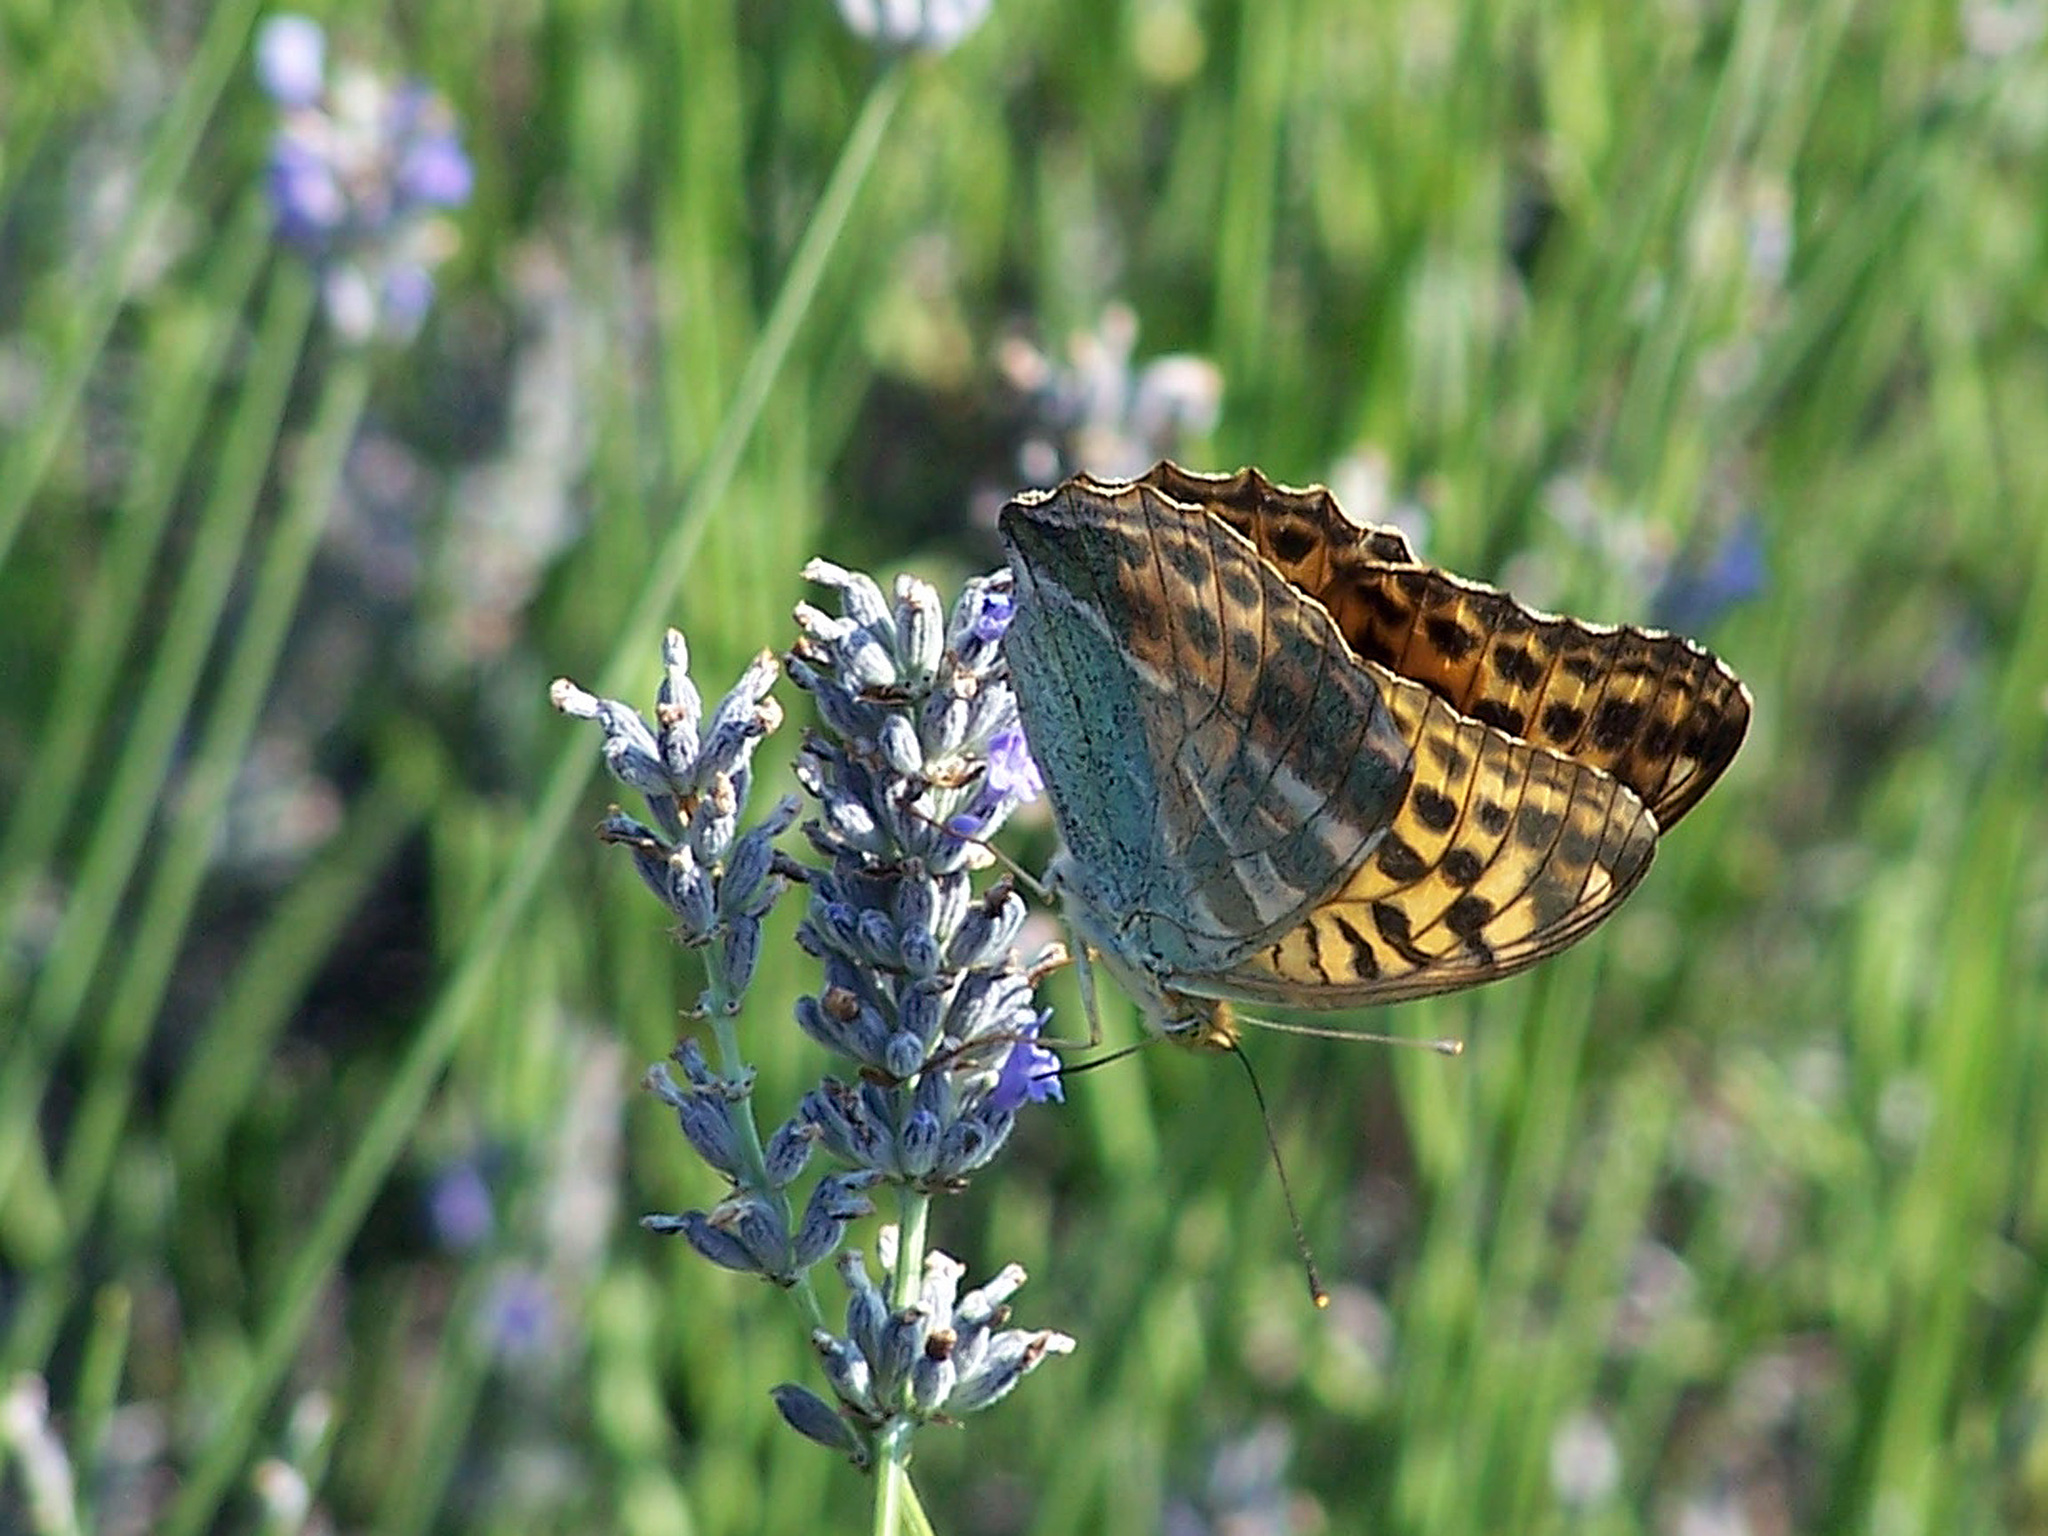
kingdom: Animalia
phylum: Arthropoda
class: Insecta
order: Lepidoptera
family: Nymphalidae
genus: Argynnis
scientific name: Argynnis paphia
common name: Silver-washed fritillary
